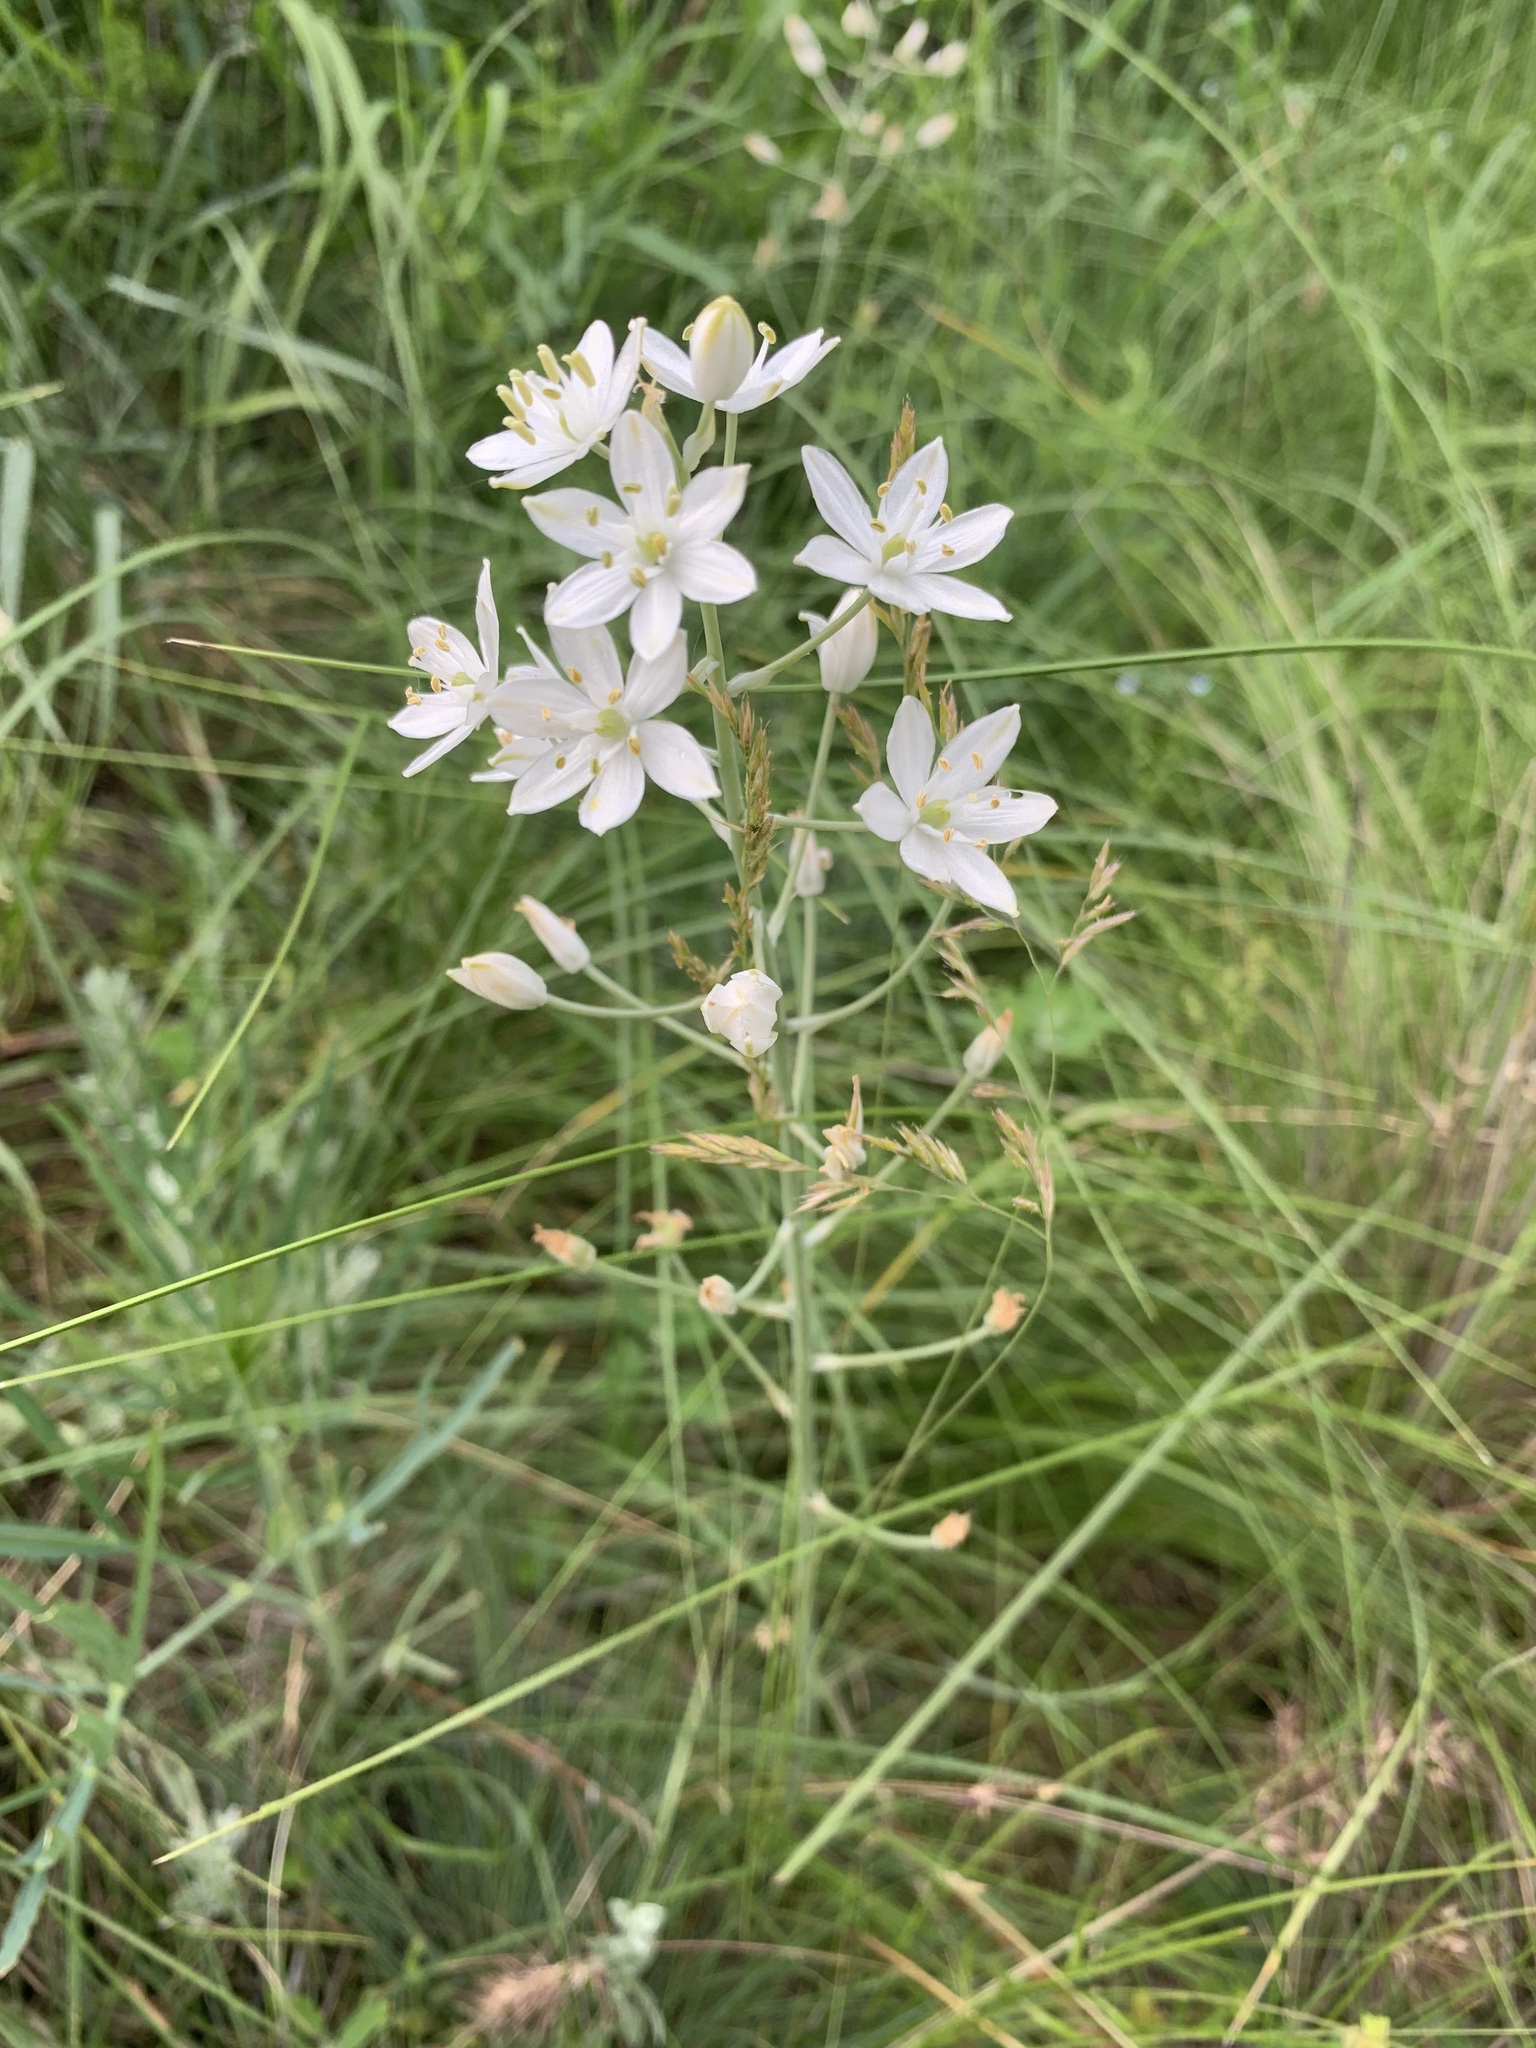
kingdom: Plantae
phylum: Tracheophyta
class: Liliopsida
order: Asparagales
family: Asparagaceae
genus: Ornithogalum
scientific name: Ornithogalum fischerianum
